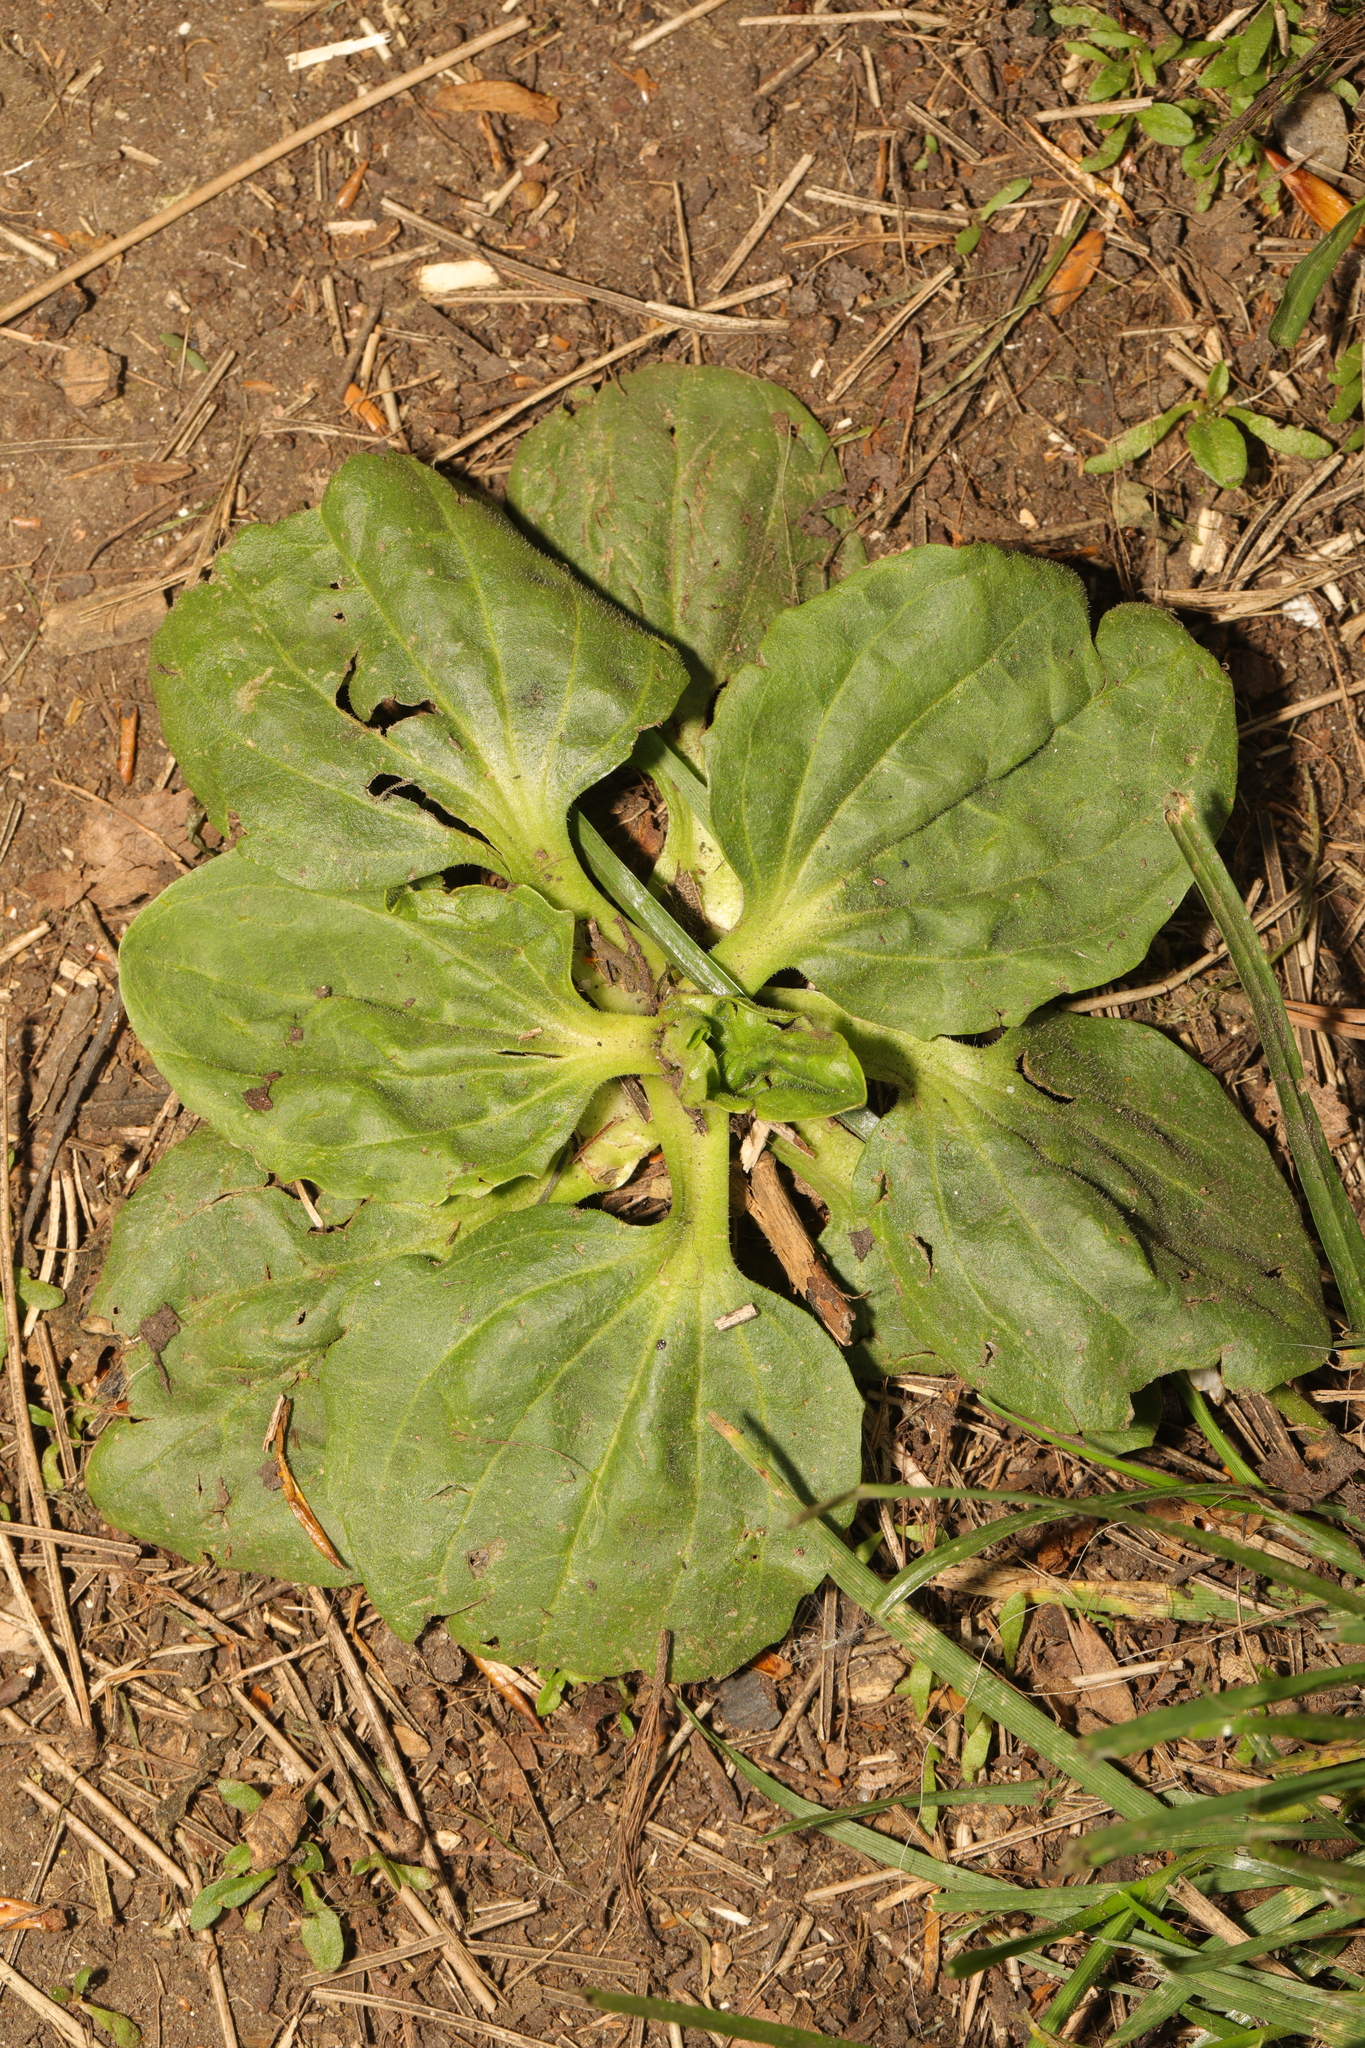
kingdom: Plantae
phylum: Tracheophyta
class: Magnoliopsida
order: Lamiales
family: Plantaginaceae
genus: Plantago
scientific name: Plantago major
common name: Common plantain
